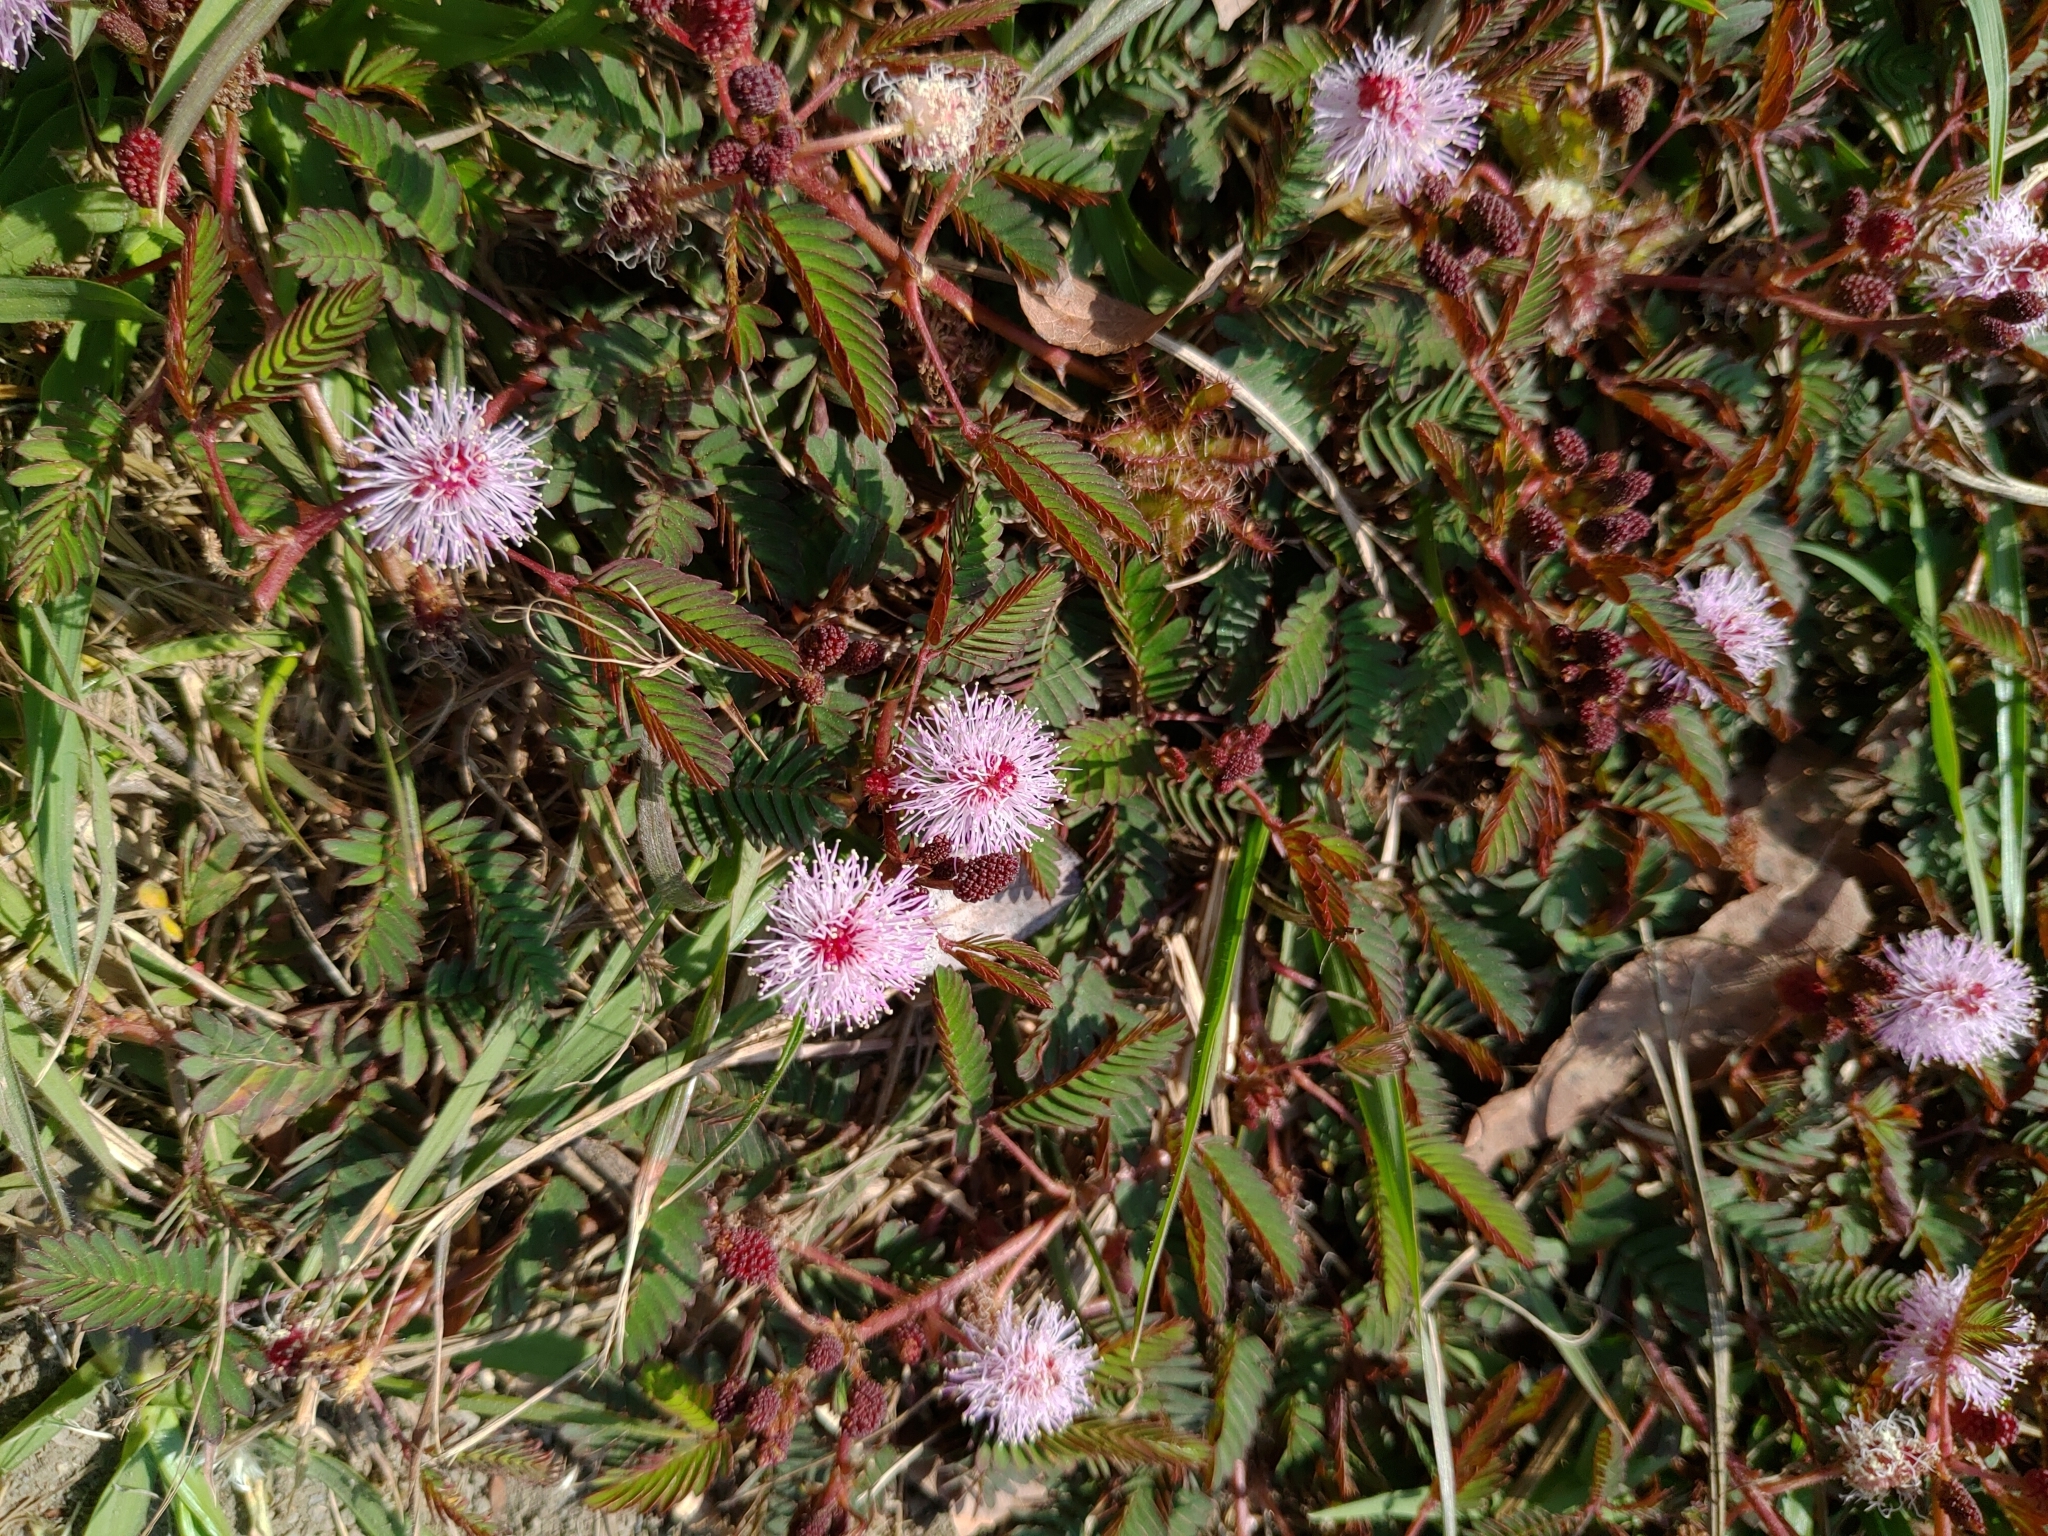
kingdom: Plantae
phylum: Tracheophyta
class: Magnoliopsida
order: Fabales
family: Fabaceae
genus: Mimosa
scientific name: Mimosa pudica
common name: Sensitive plant
